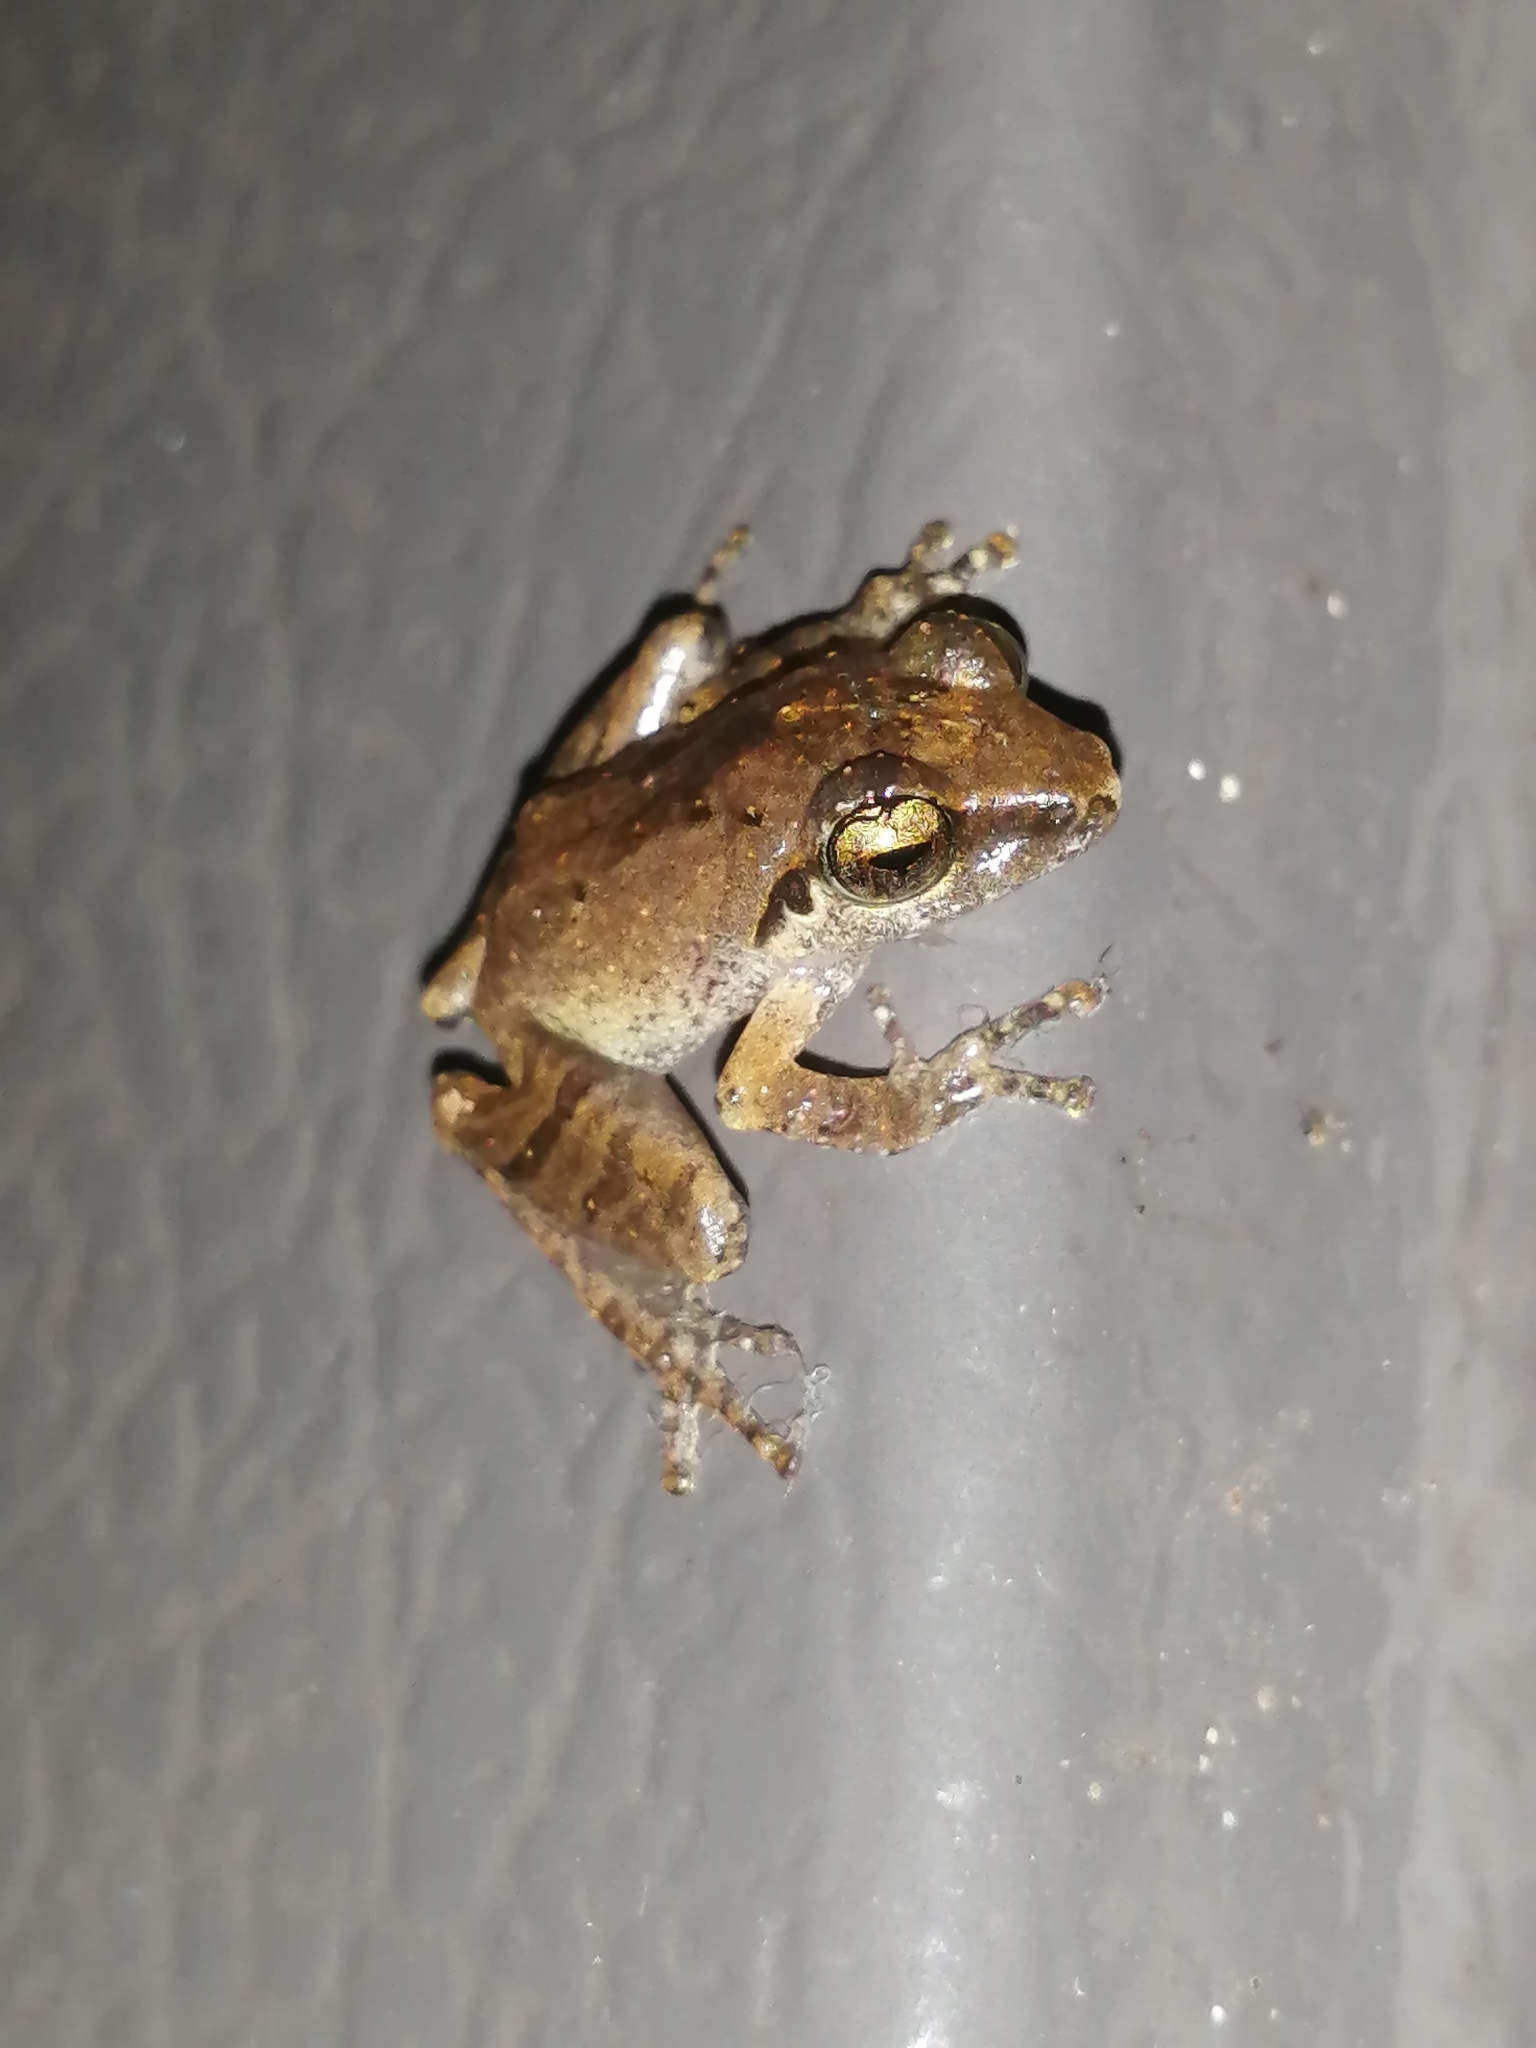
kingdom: Animalia
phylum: Chordata
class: Amphibia
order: Anura
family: Rhacophoridae
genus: Pseudophilautus
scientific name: Pseudophilautus wynaadensis
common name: Dark-eared bush frog
